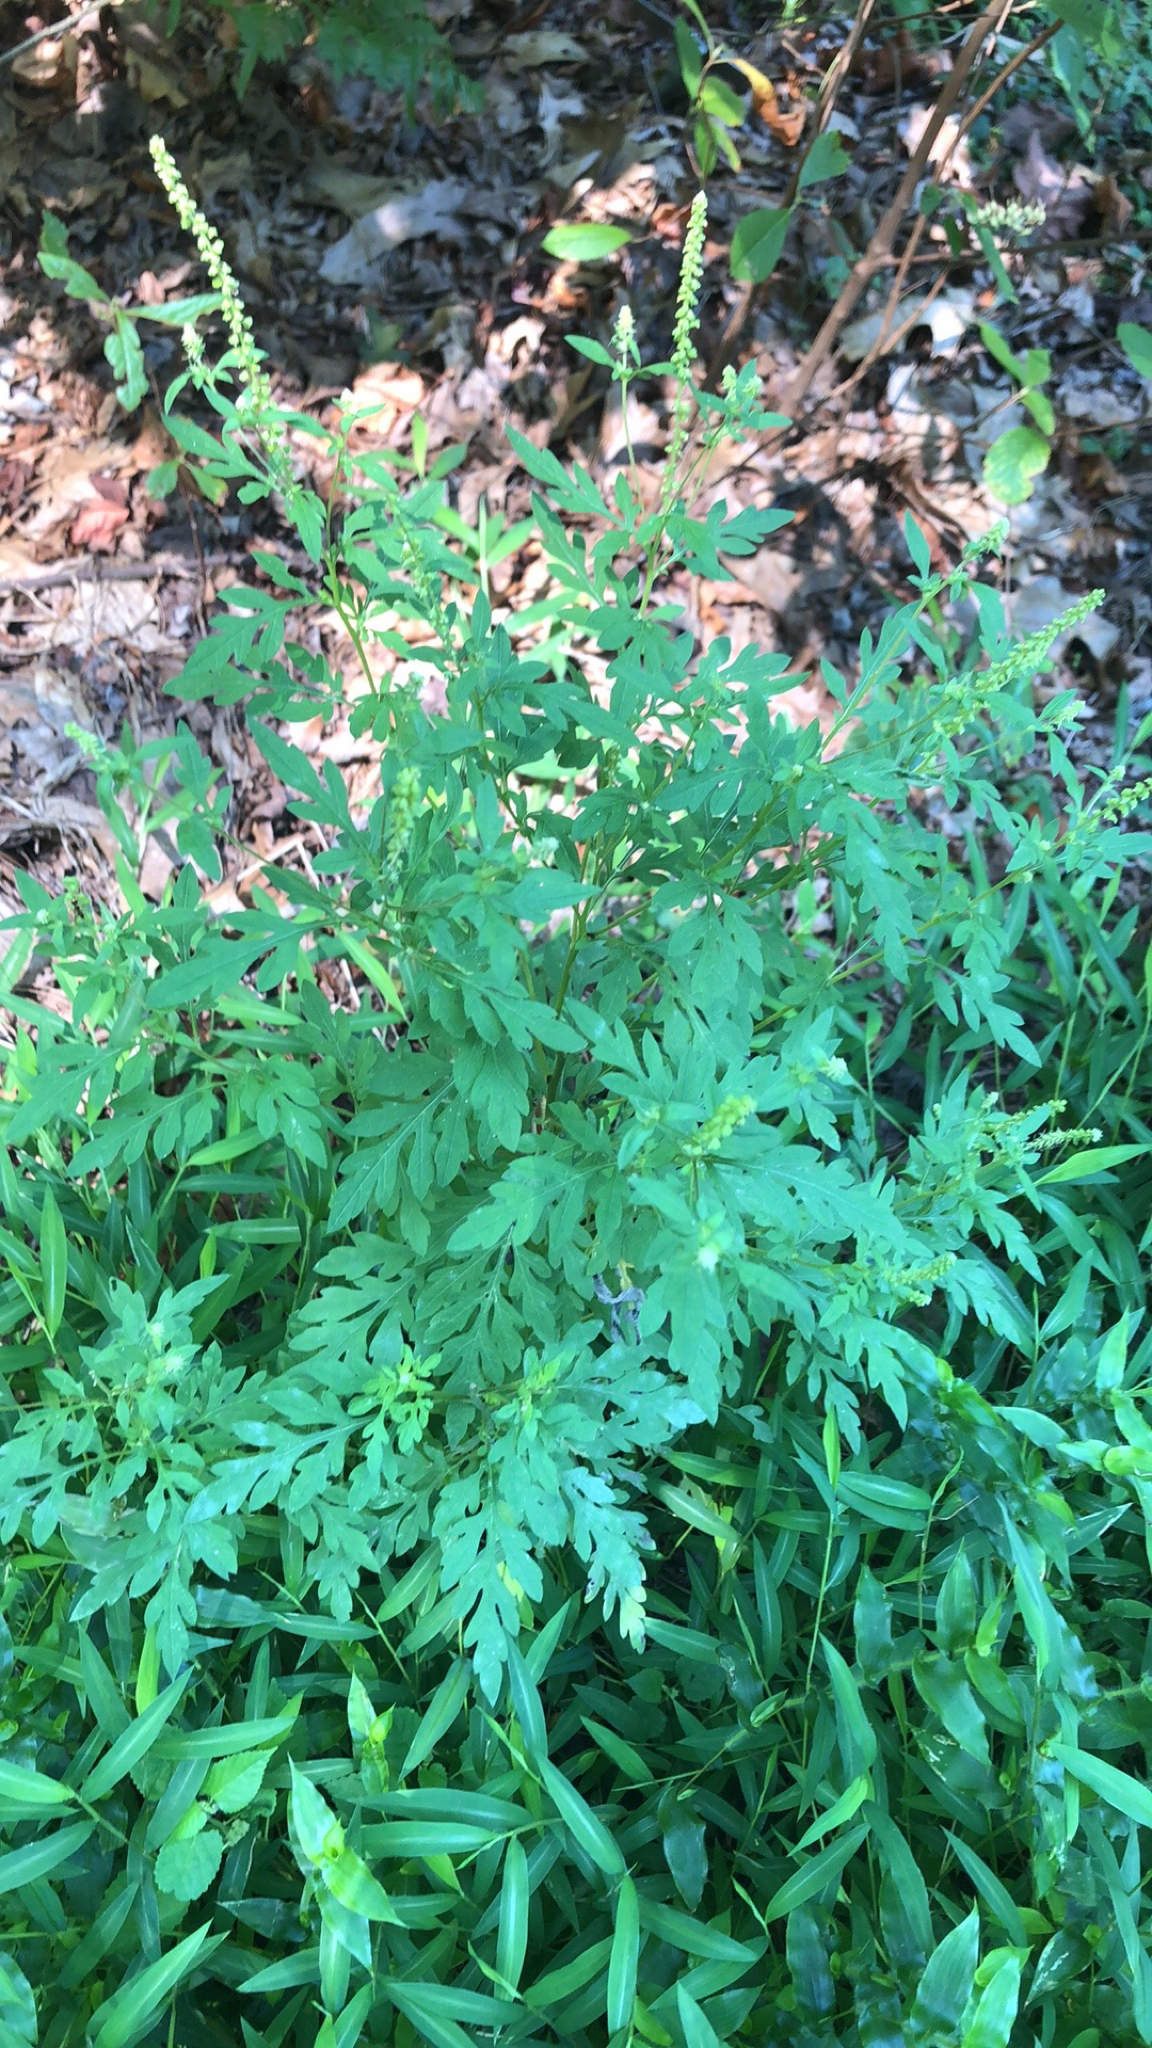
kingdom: Plantae
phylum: Tracheophyta
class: Magnoliopsida
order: Asterales
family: Asteraceae
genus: Ambrosia
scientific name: Ambrosia artemisiifolia
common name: Annual ragweed
